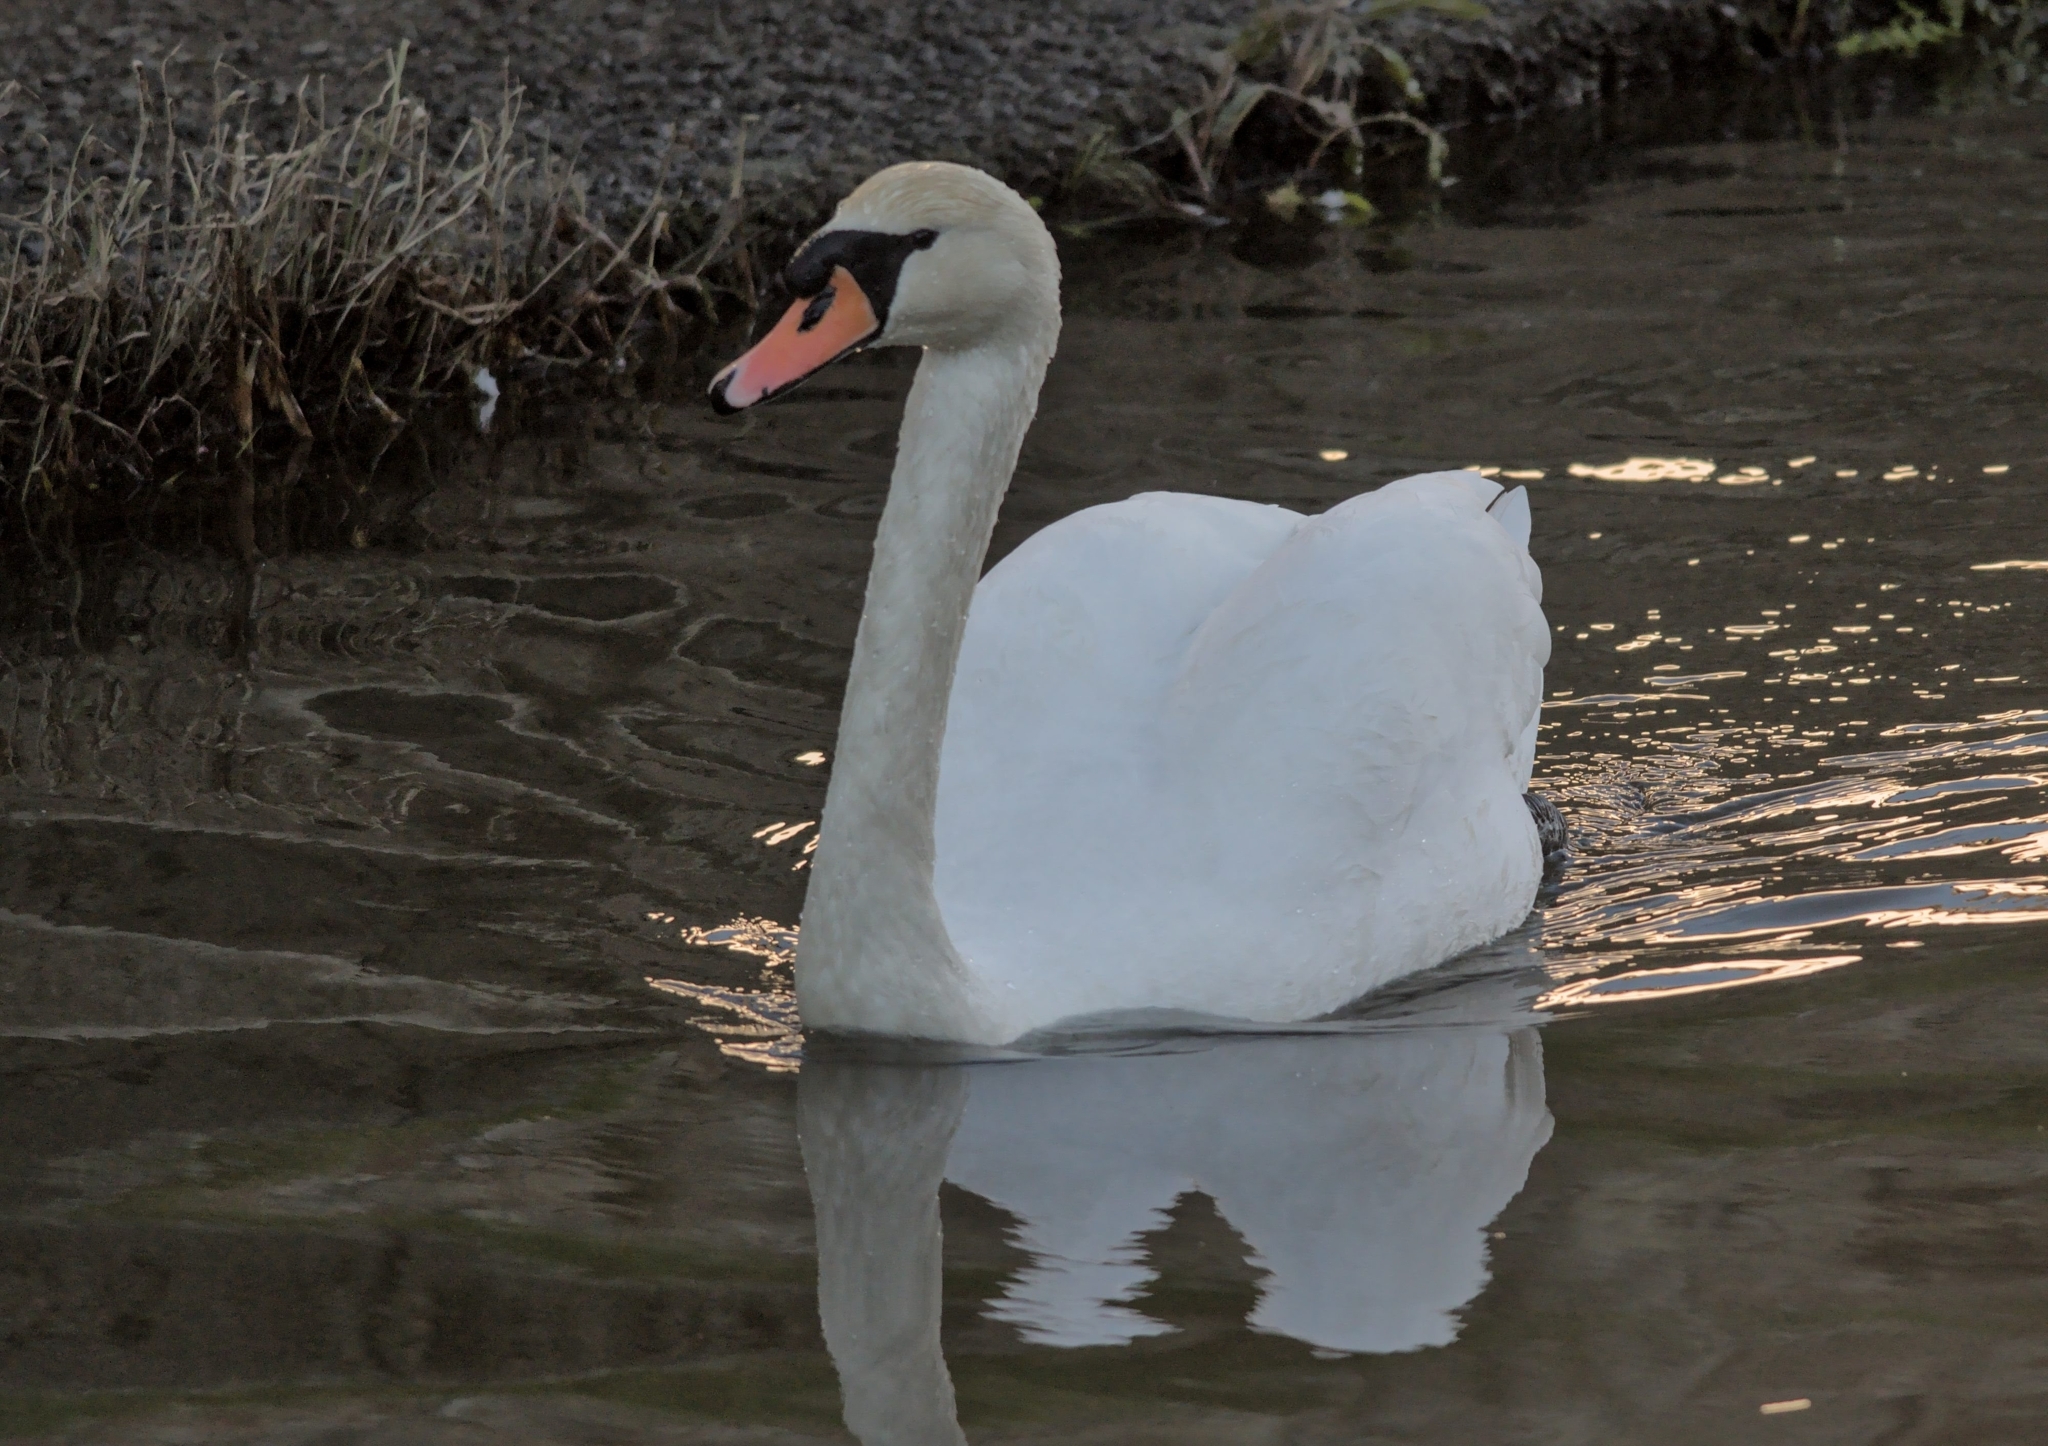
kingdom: Animalia
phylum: Chordata
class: Aves
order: Anseriformes
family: Anatidae
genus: Cygnus
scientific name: Cygnus olor
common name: Mute swan
